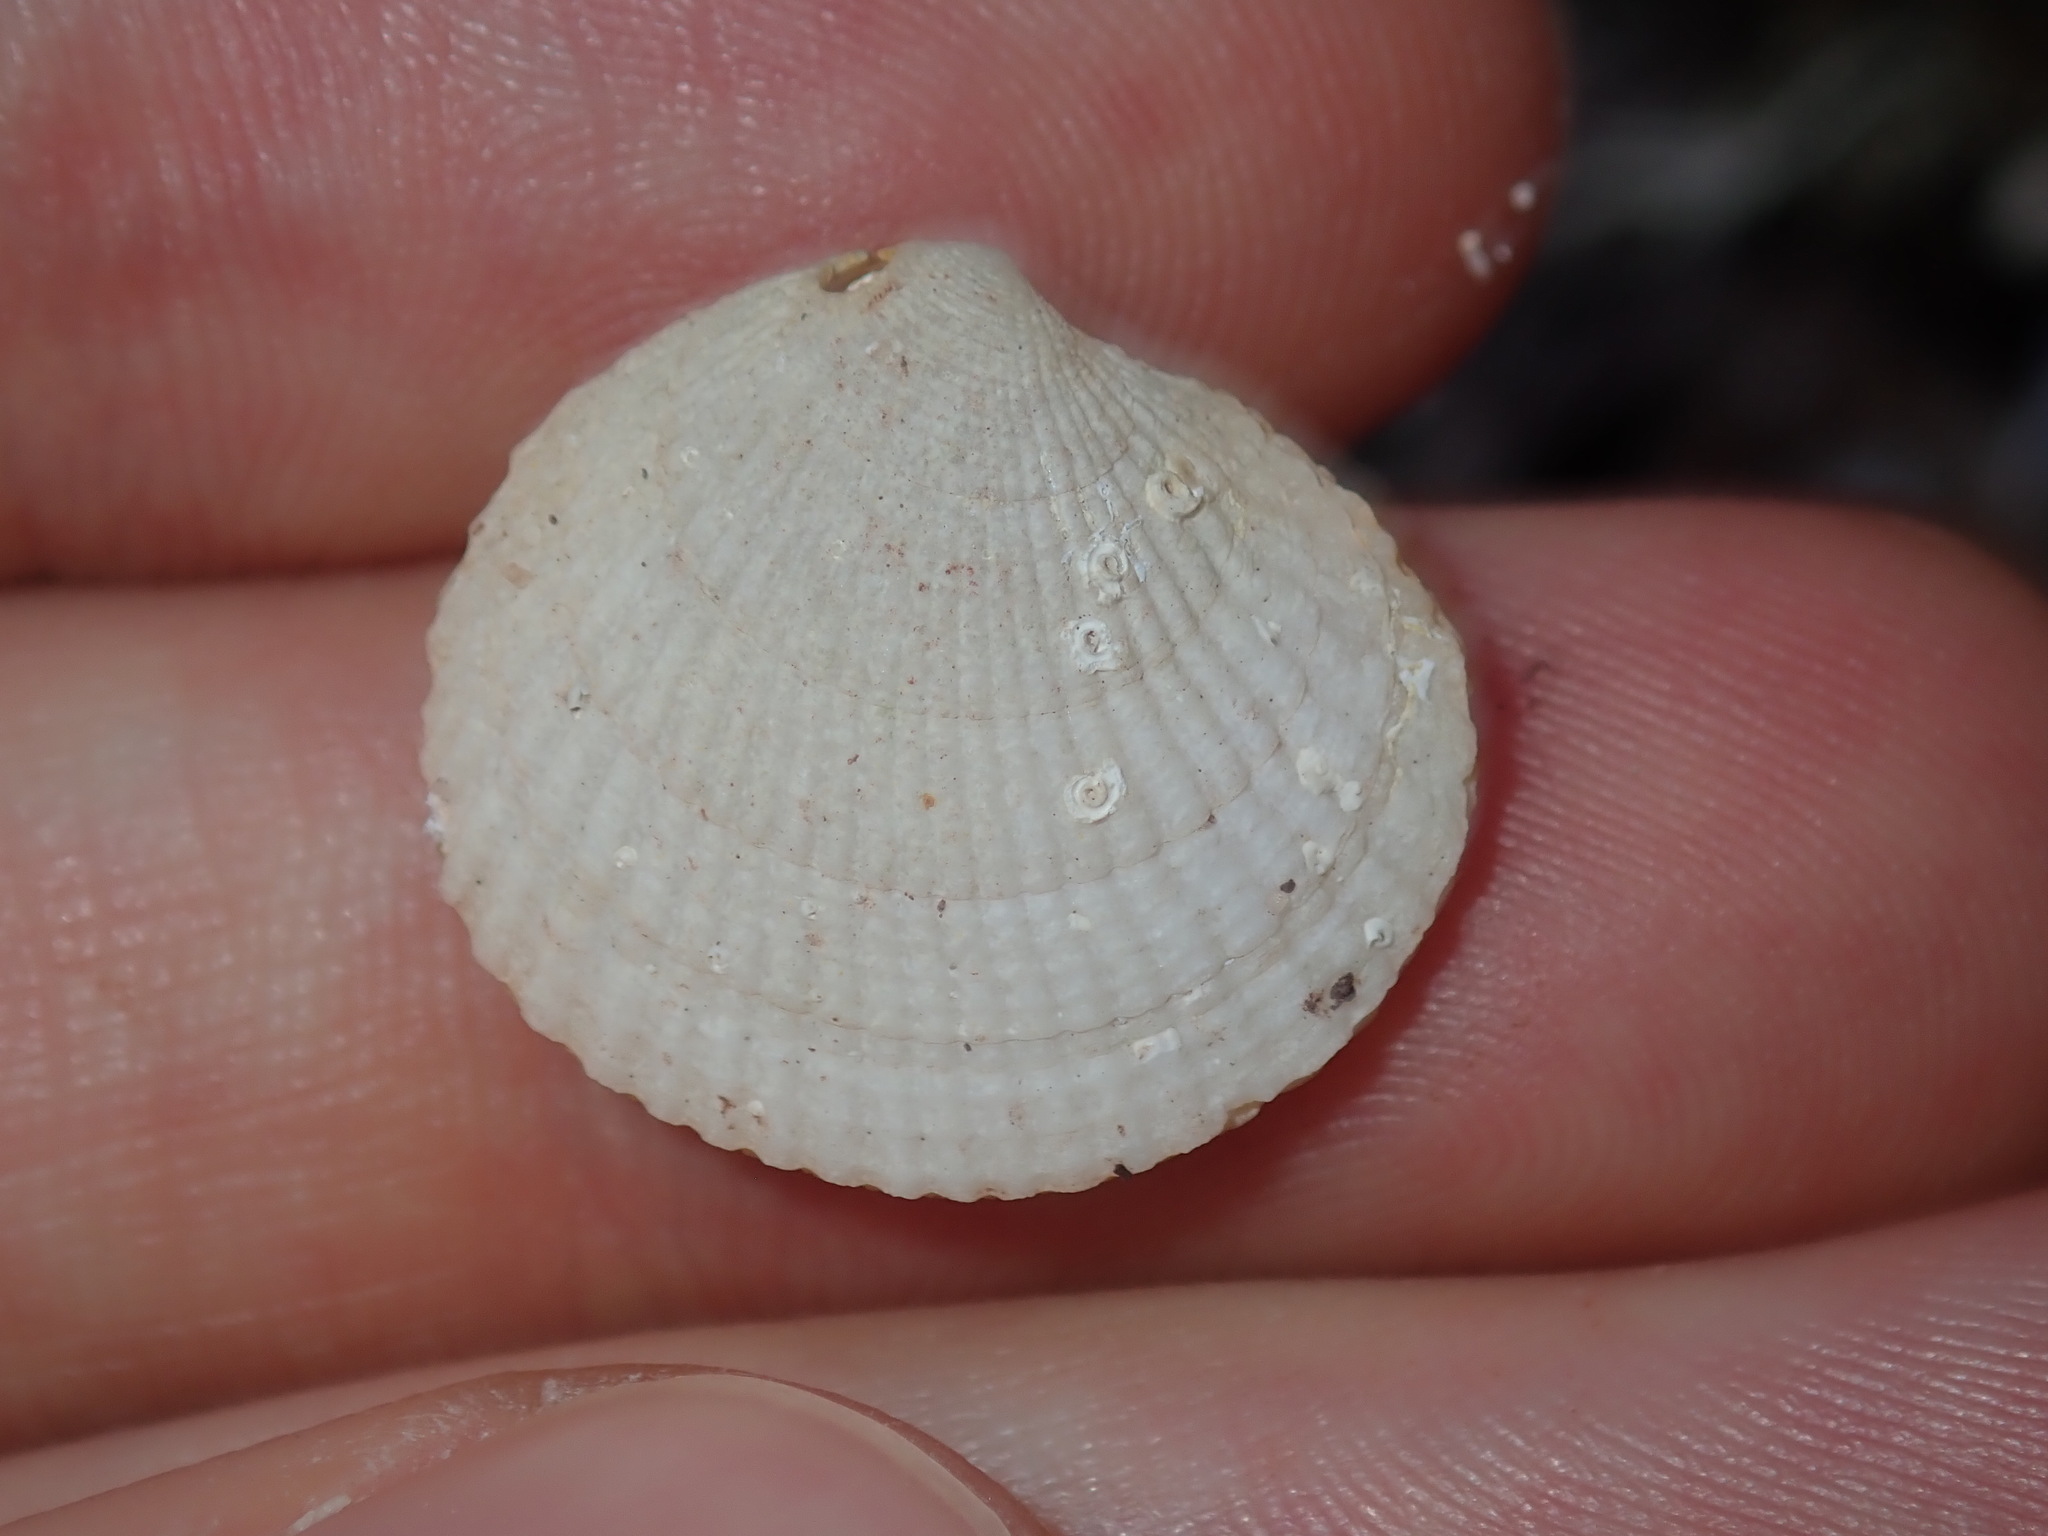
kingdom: Animalia
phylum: Mollusca
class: Bivalvia
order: Lucinida
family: Lucinidae
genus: Codakia
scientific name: Codakia rugifera
